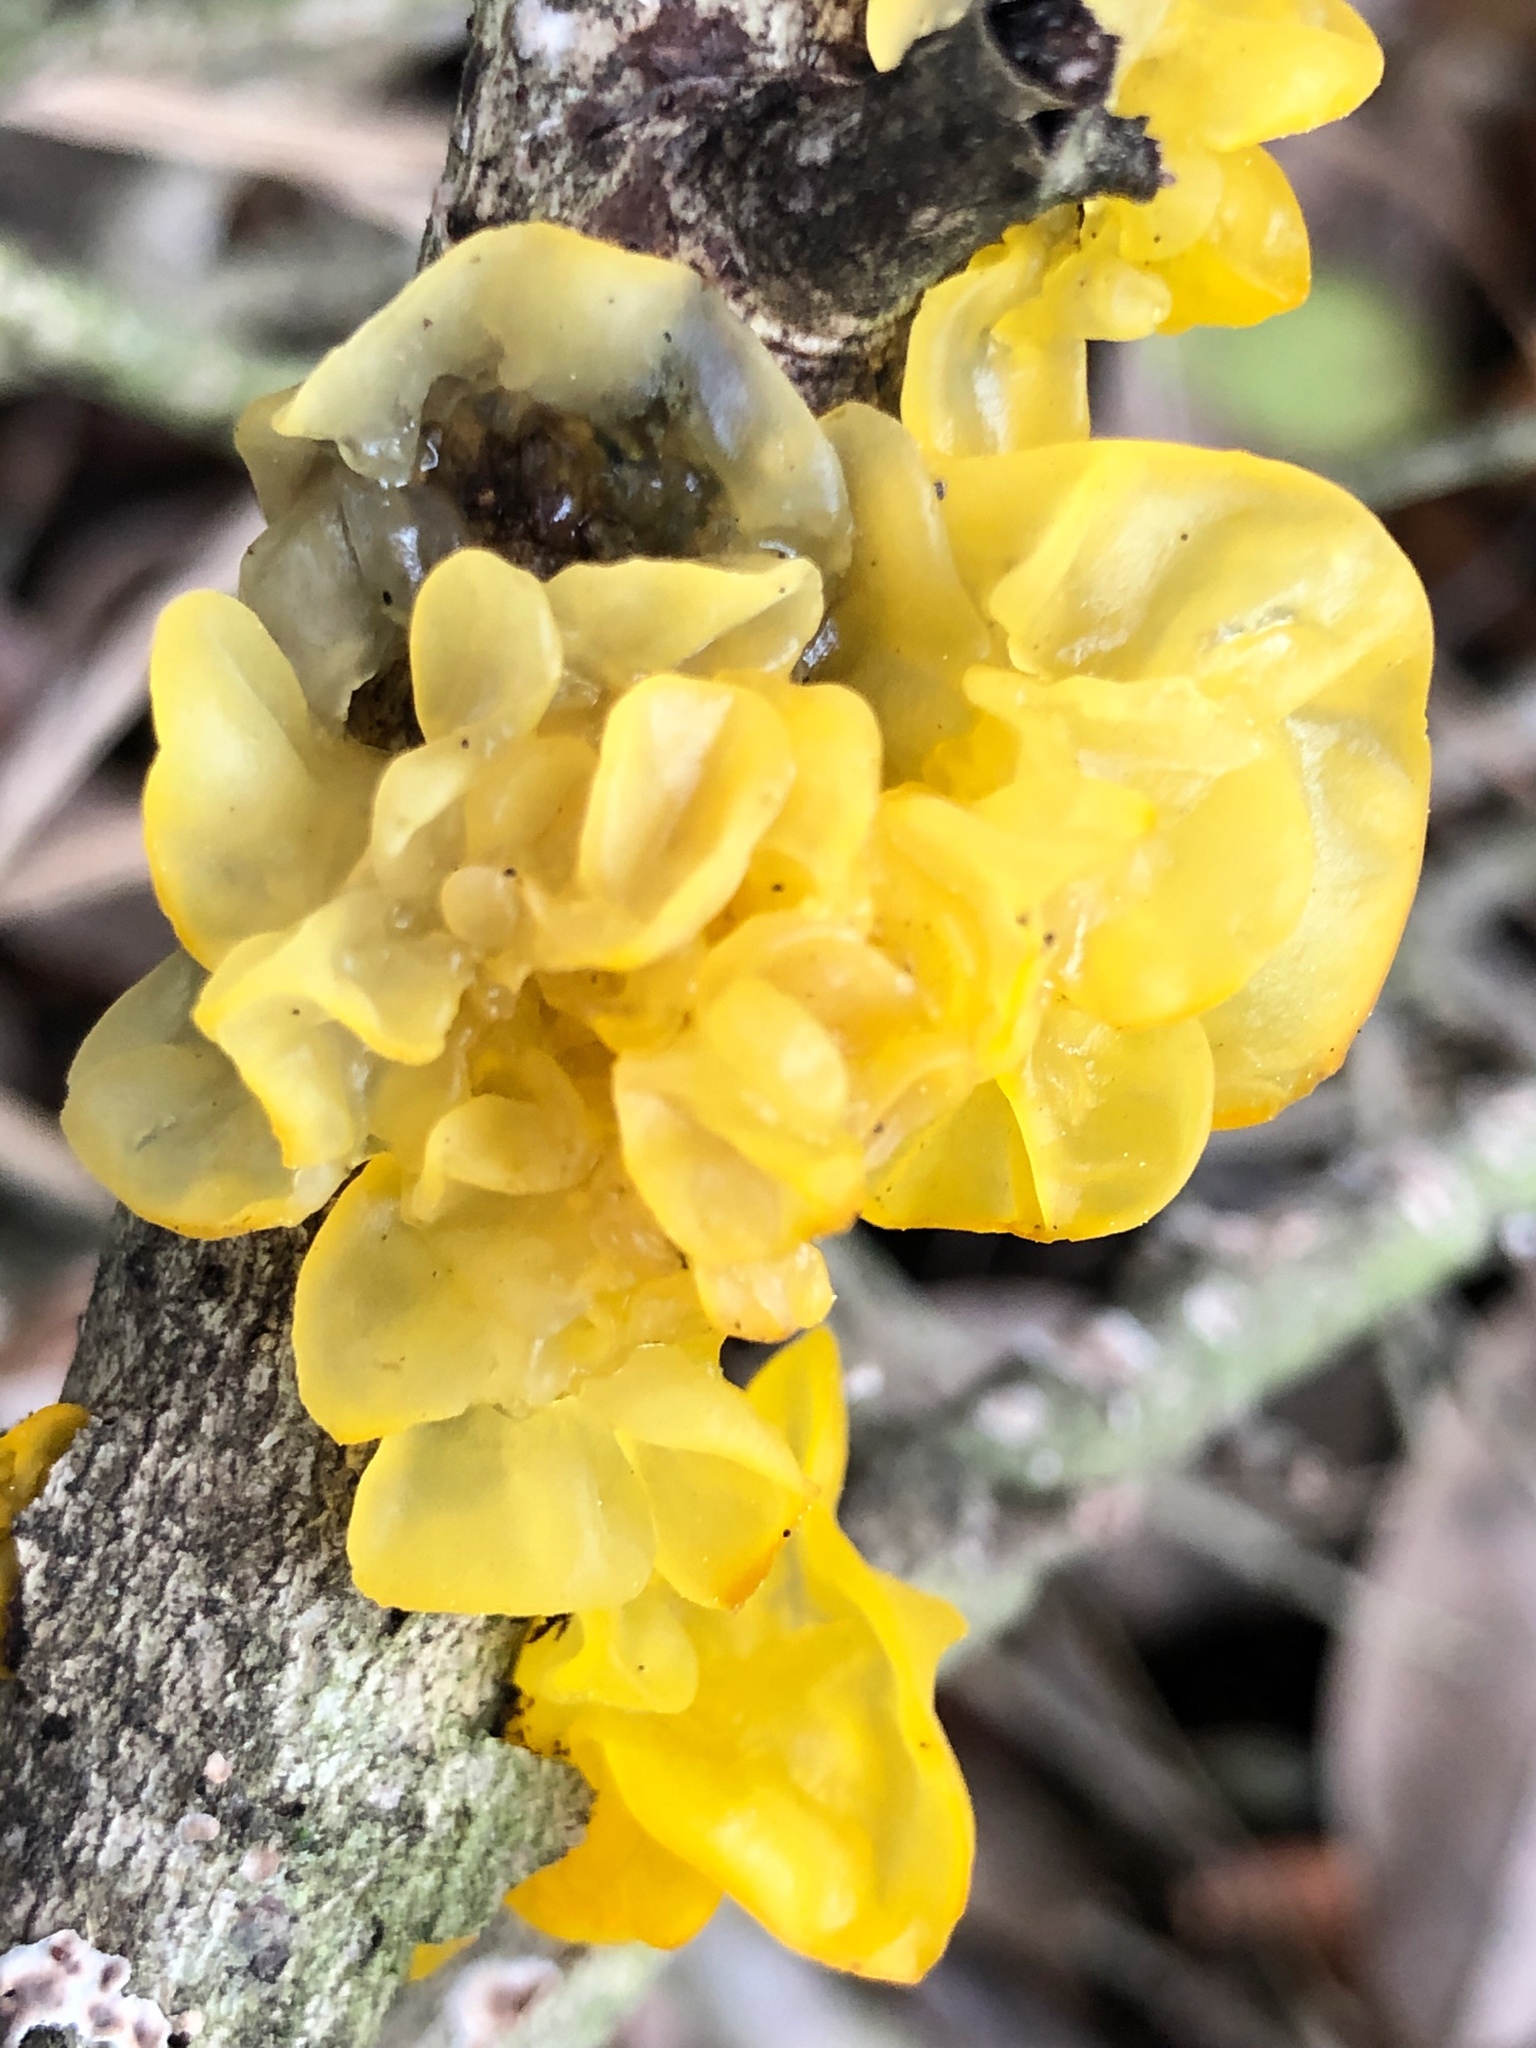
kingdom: Fungi
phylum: Basidiomycota
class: Tremellomycetes
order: Tremellales
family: Tremellaceae
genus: Tremella
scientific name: Tremella mesenterica
